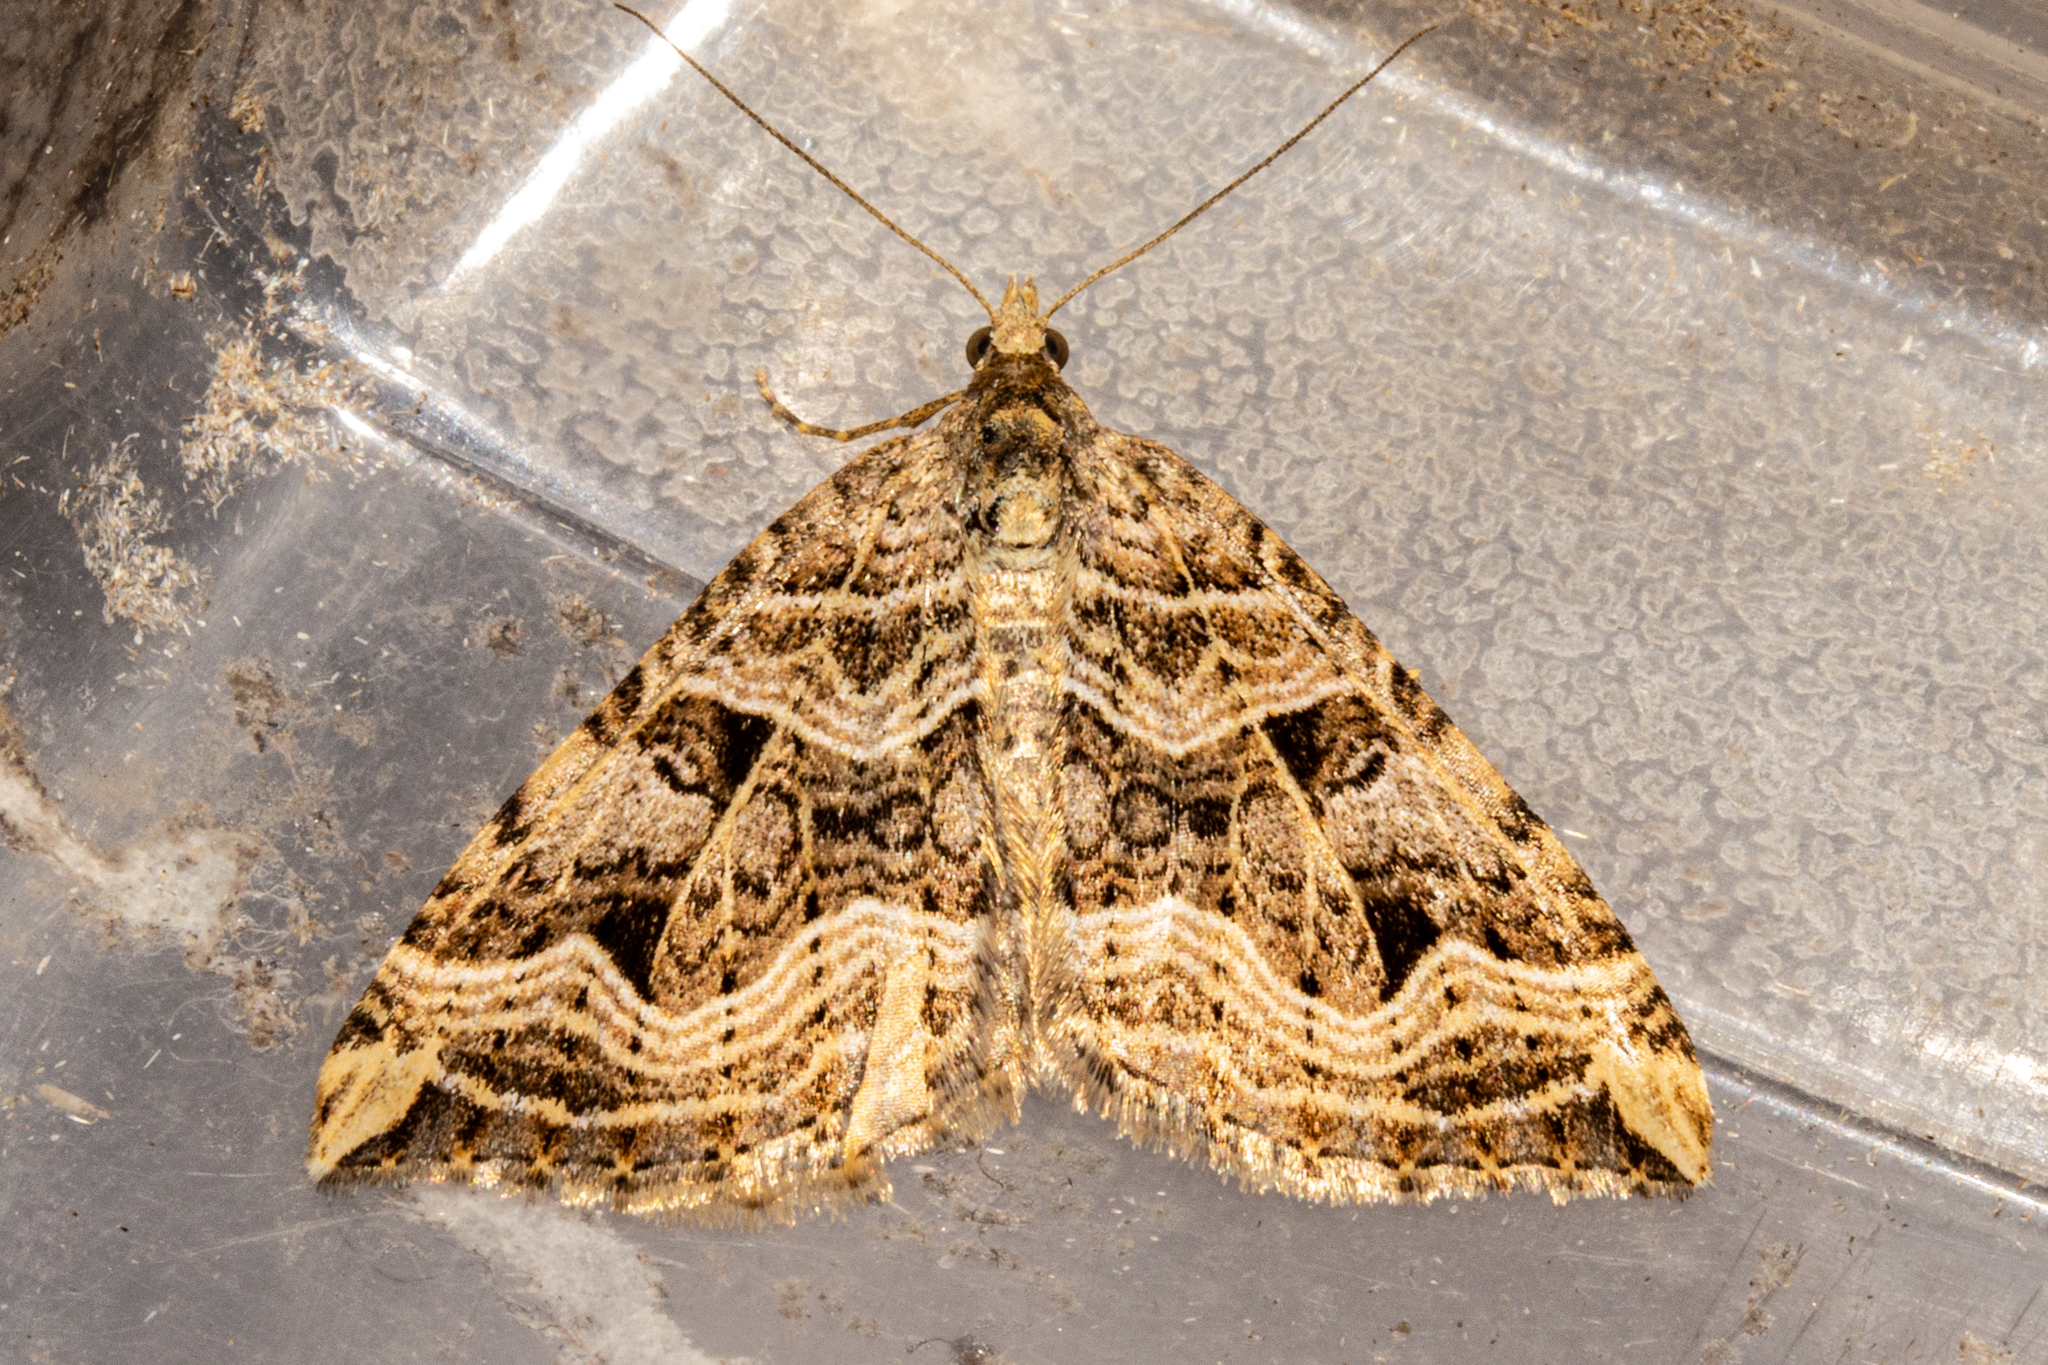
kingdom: Animalia
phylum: Arthropoda
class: Insecta
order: Lepidoptera
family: Geometridae
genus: Xanthorhoe
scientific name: Xanthorhoe semifissata
